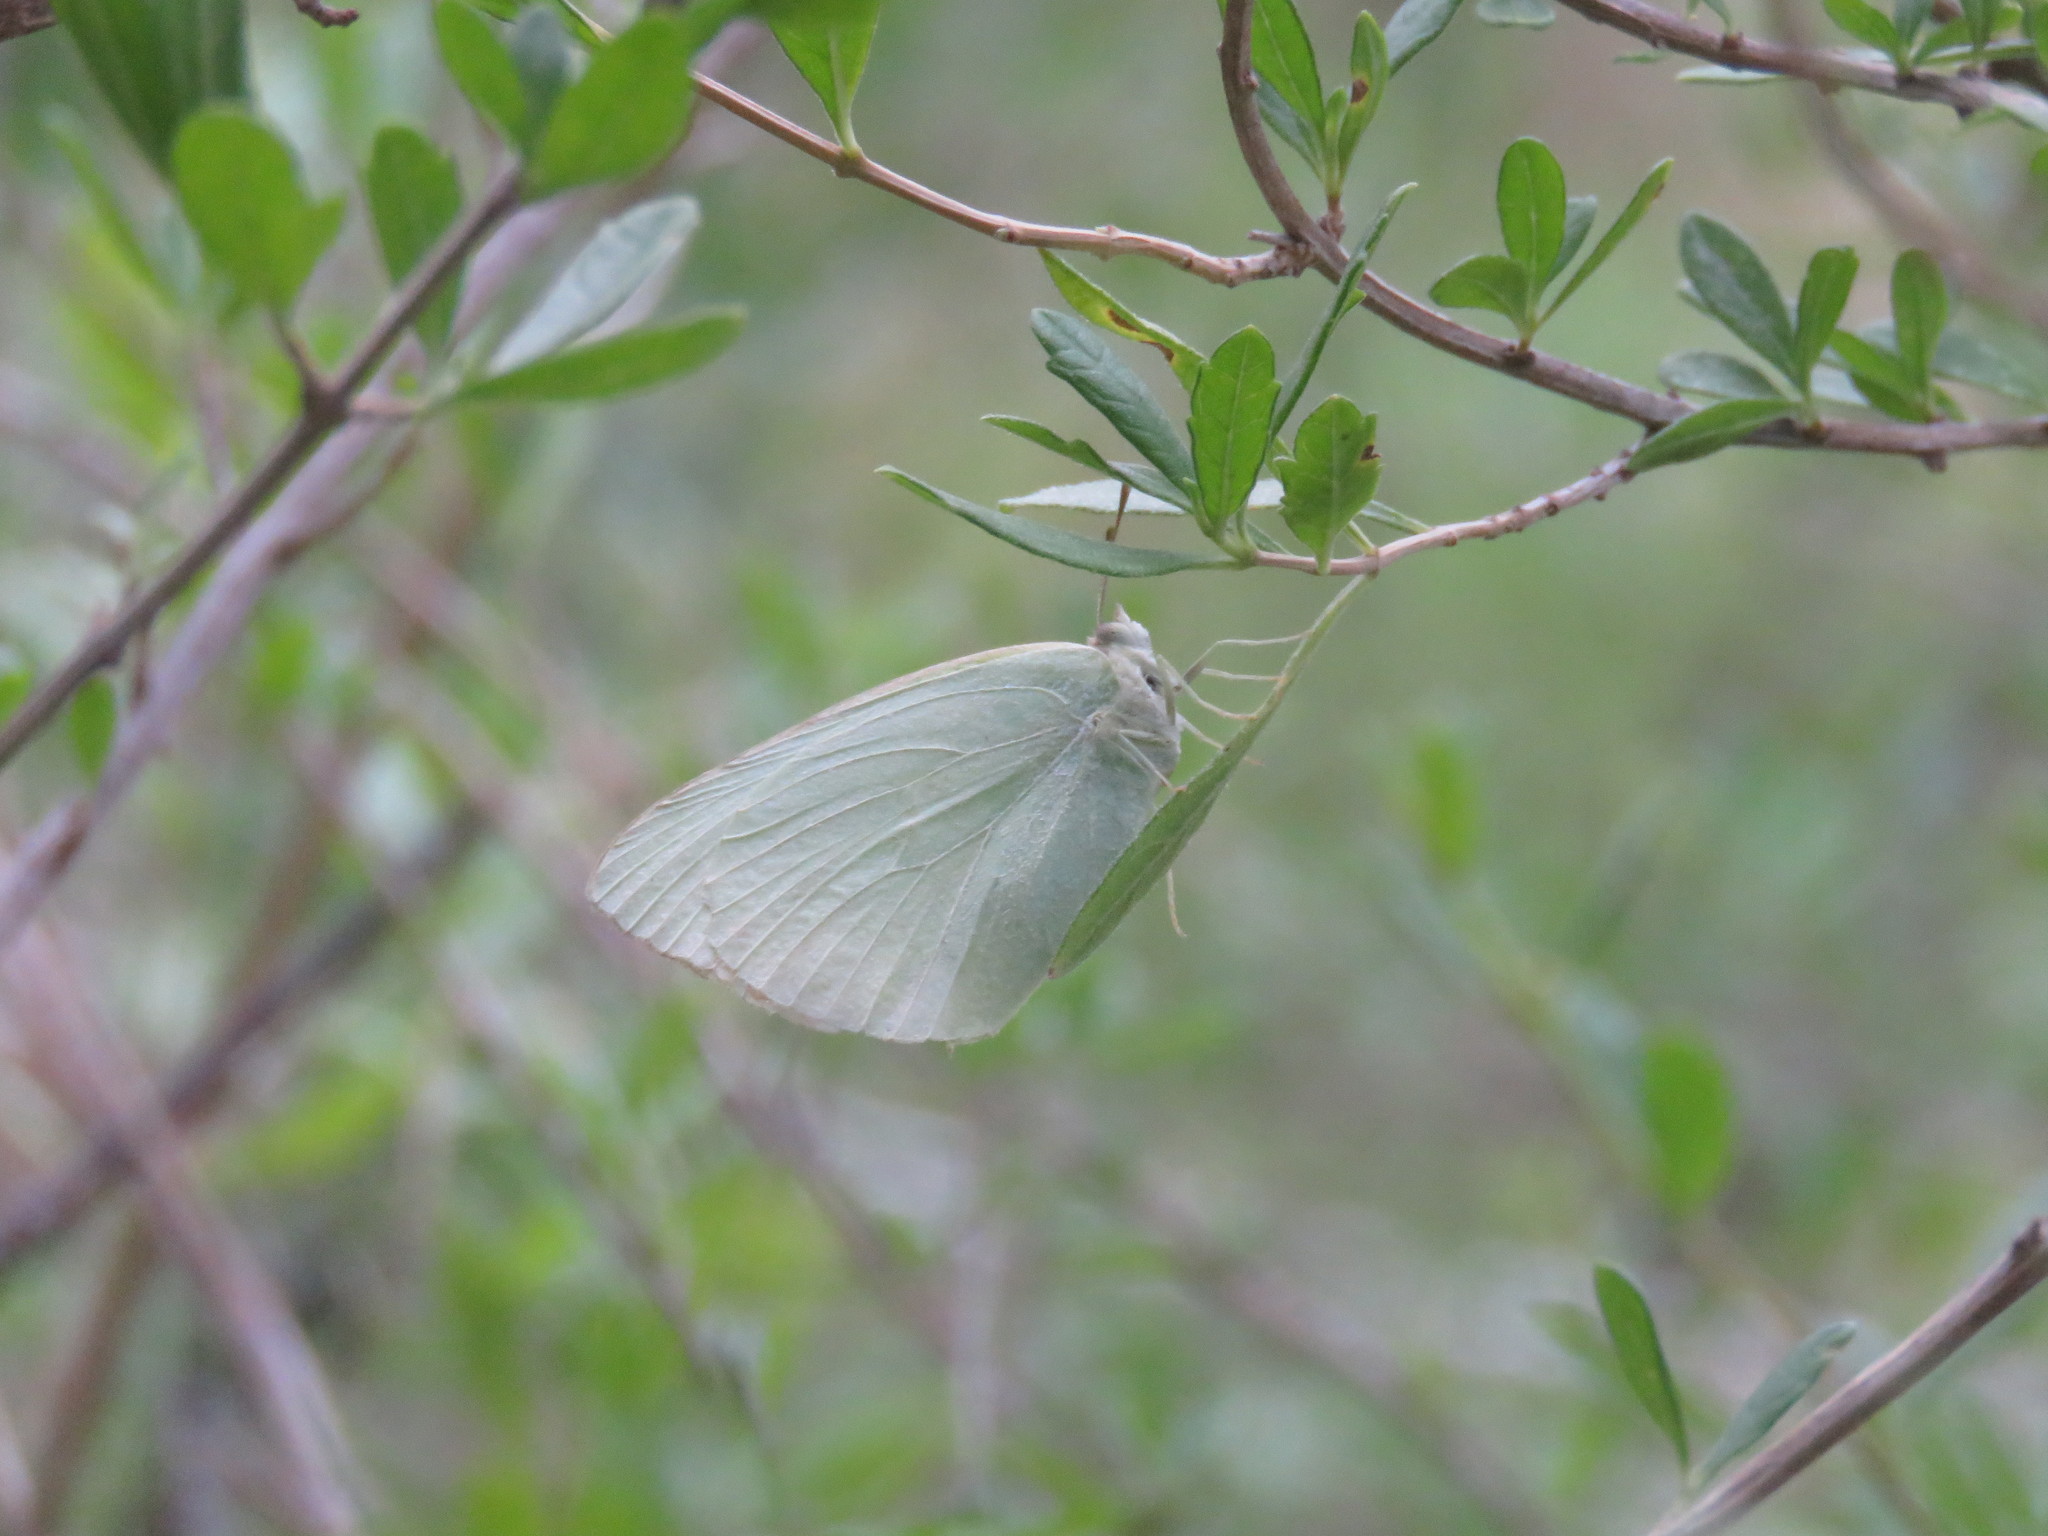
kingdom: Animalia
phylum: Arthropoda
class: Insecta
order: Lepidoptera
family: Pieridae
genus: Kricogonia
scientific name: Kricogonia lyside
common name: Guayacan sulphur,
